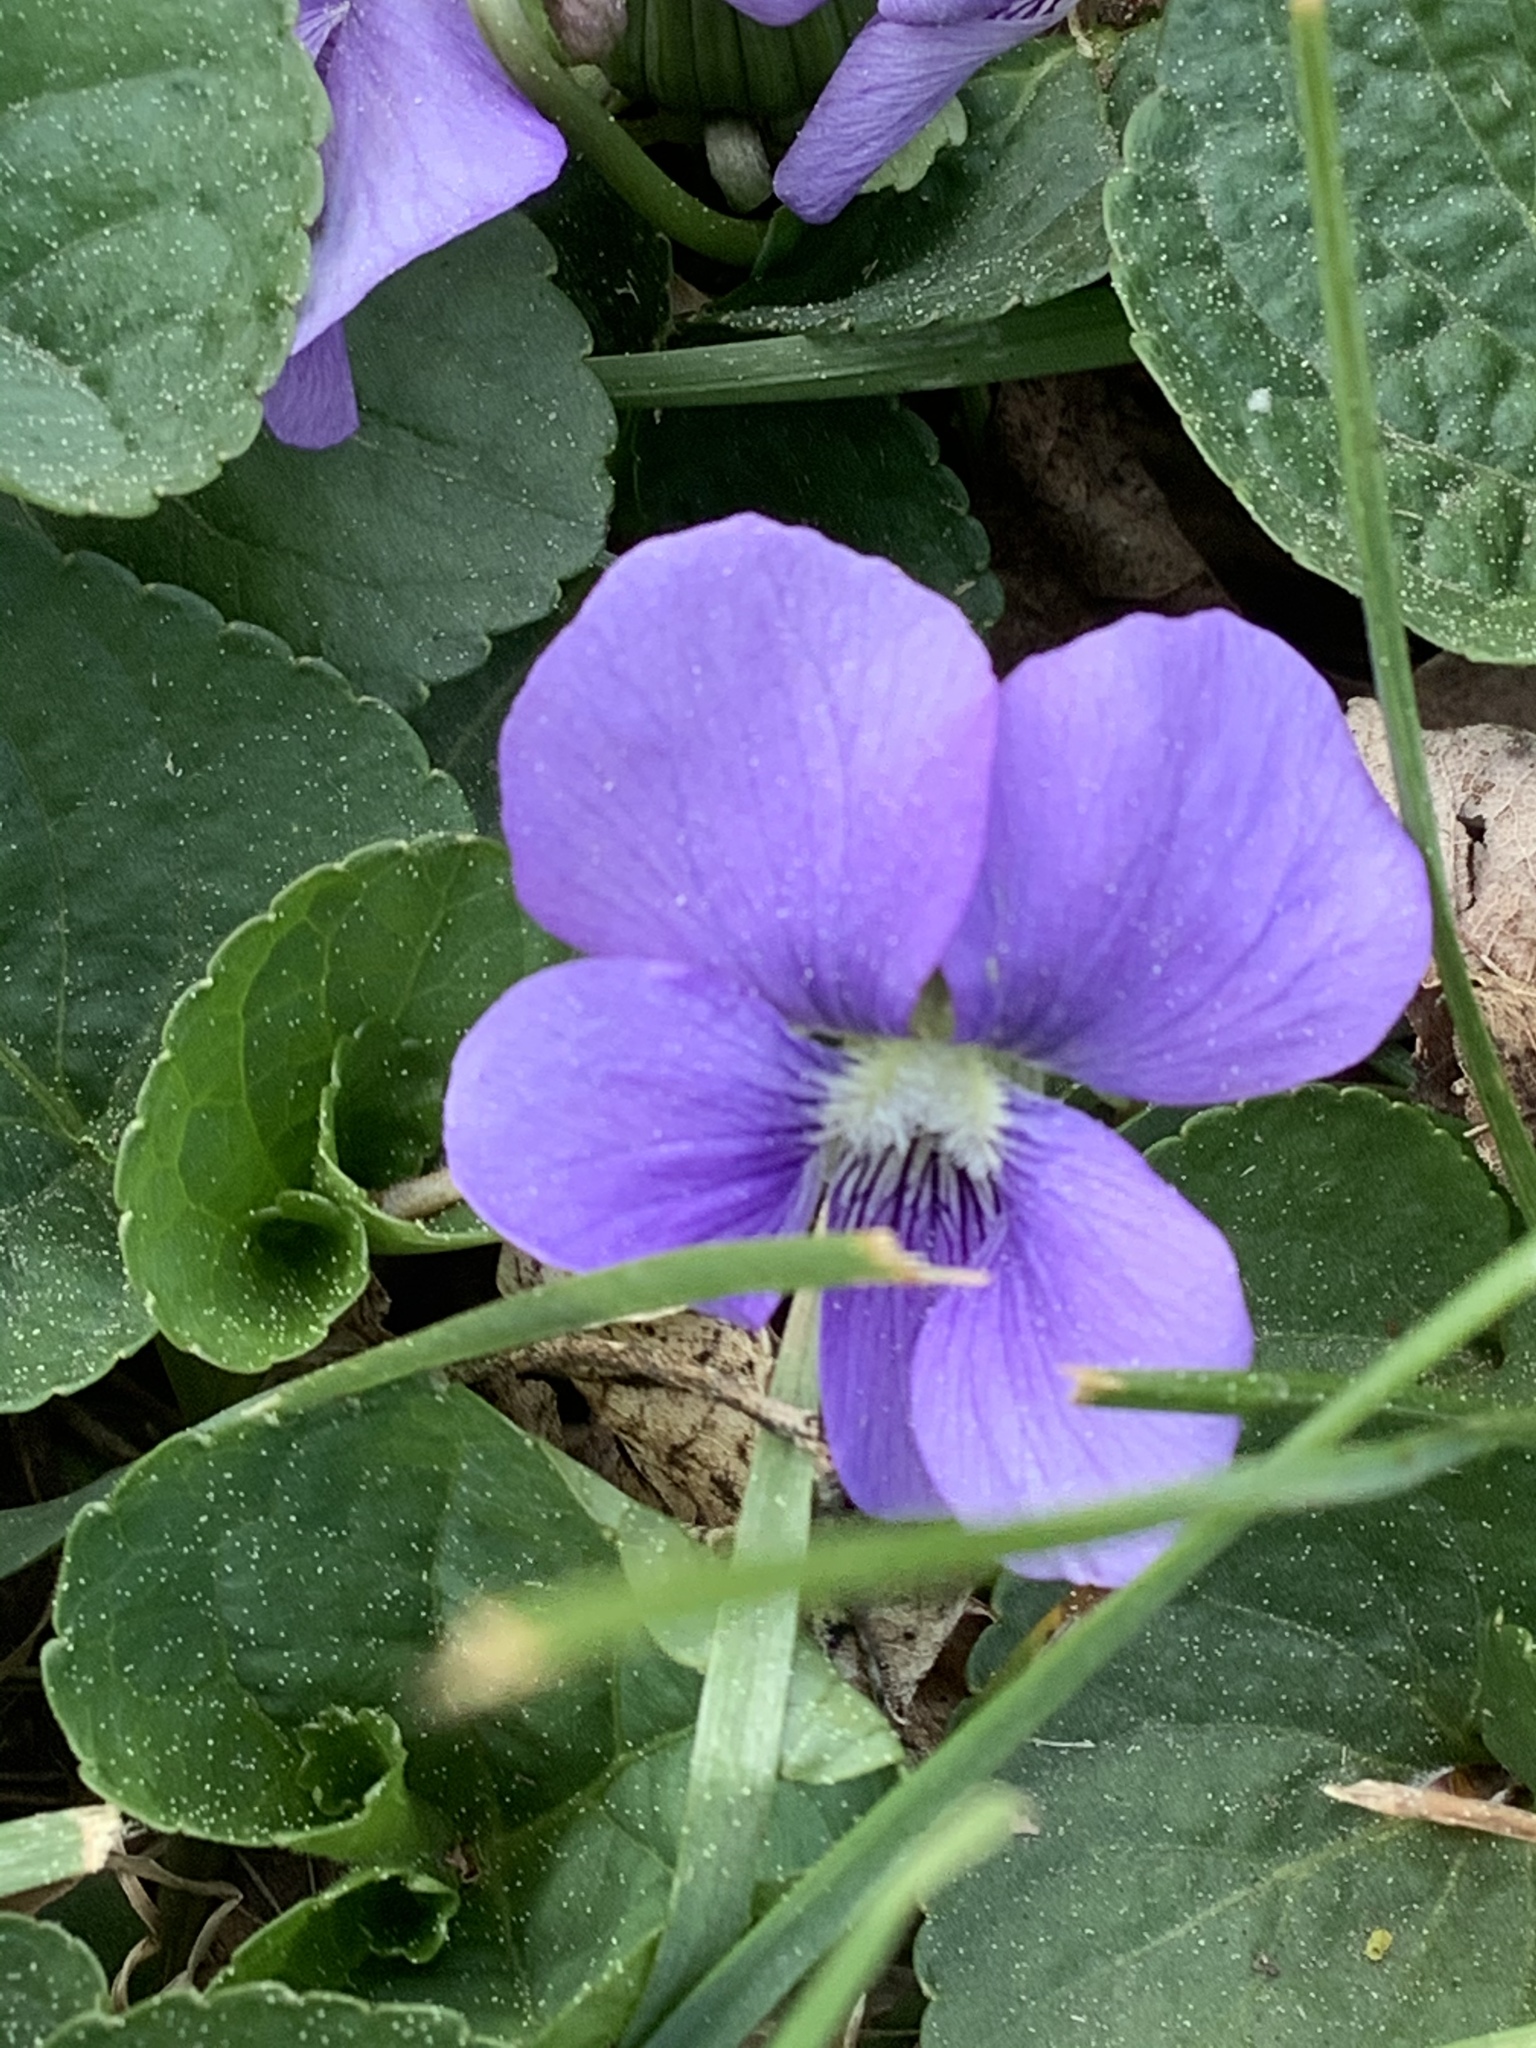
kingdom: Plantae
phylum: Tracheophyta
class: Magnoliopsida
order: Malpighiales
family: Violaceae
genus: Viola
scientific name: Viola sororia
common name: Dooryard violet
